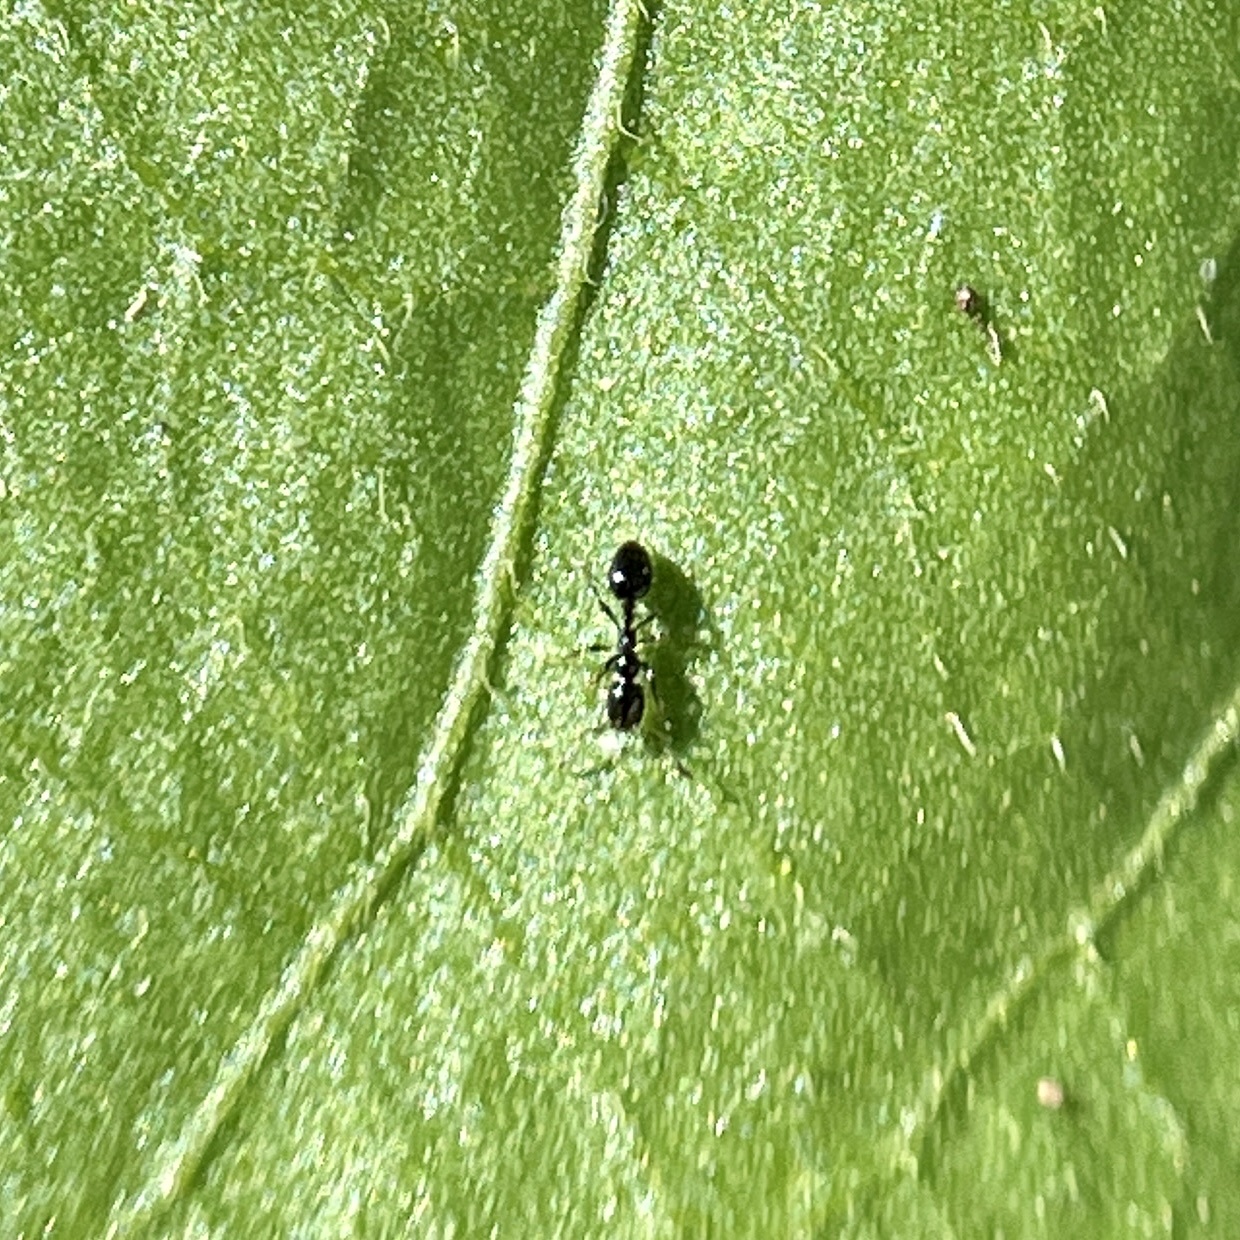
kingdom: Animalia
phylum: Arthropoda
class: Insecta
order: Hymenoptera
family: Formicidae
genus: Monomorium
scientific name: Monomorium minimum
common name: Little black ant
